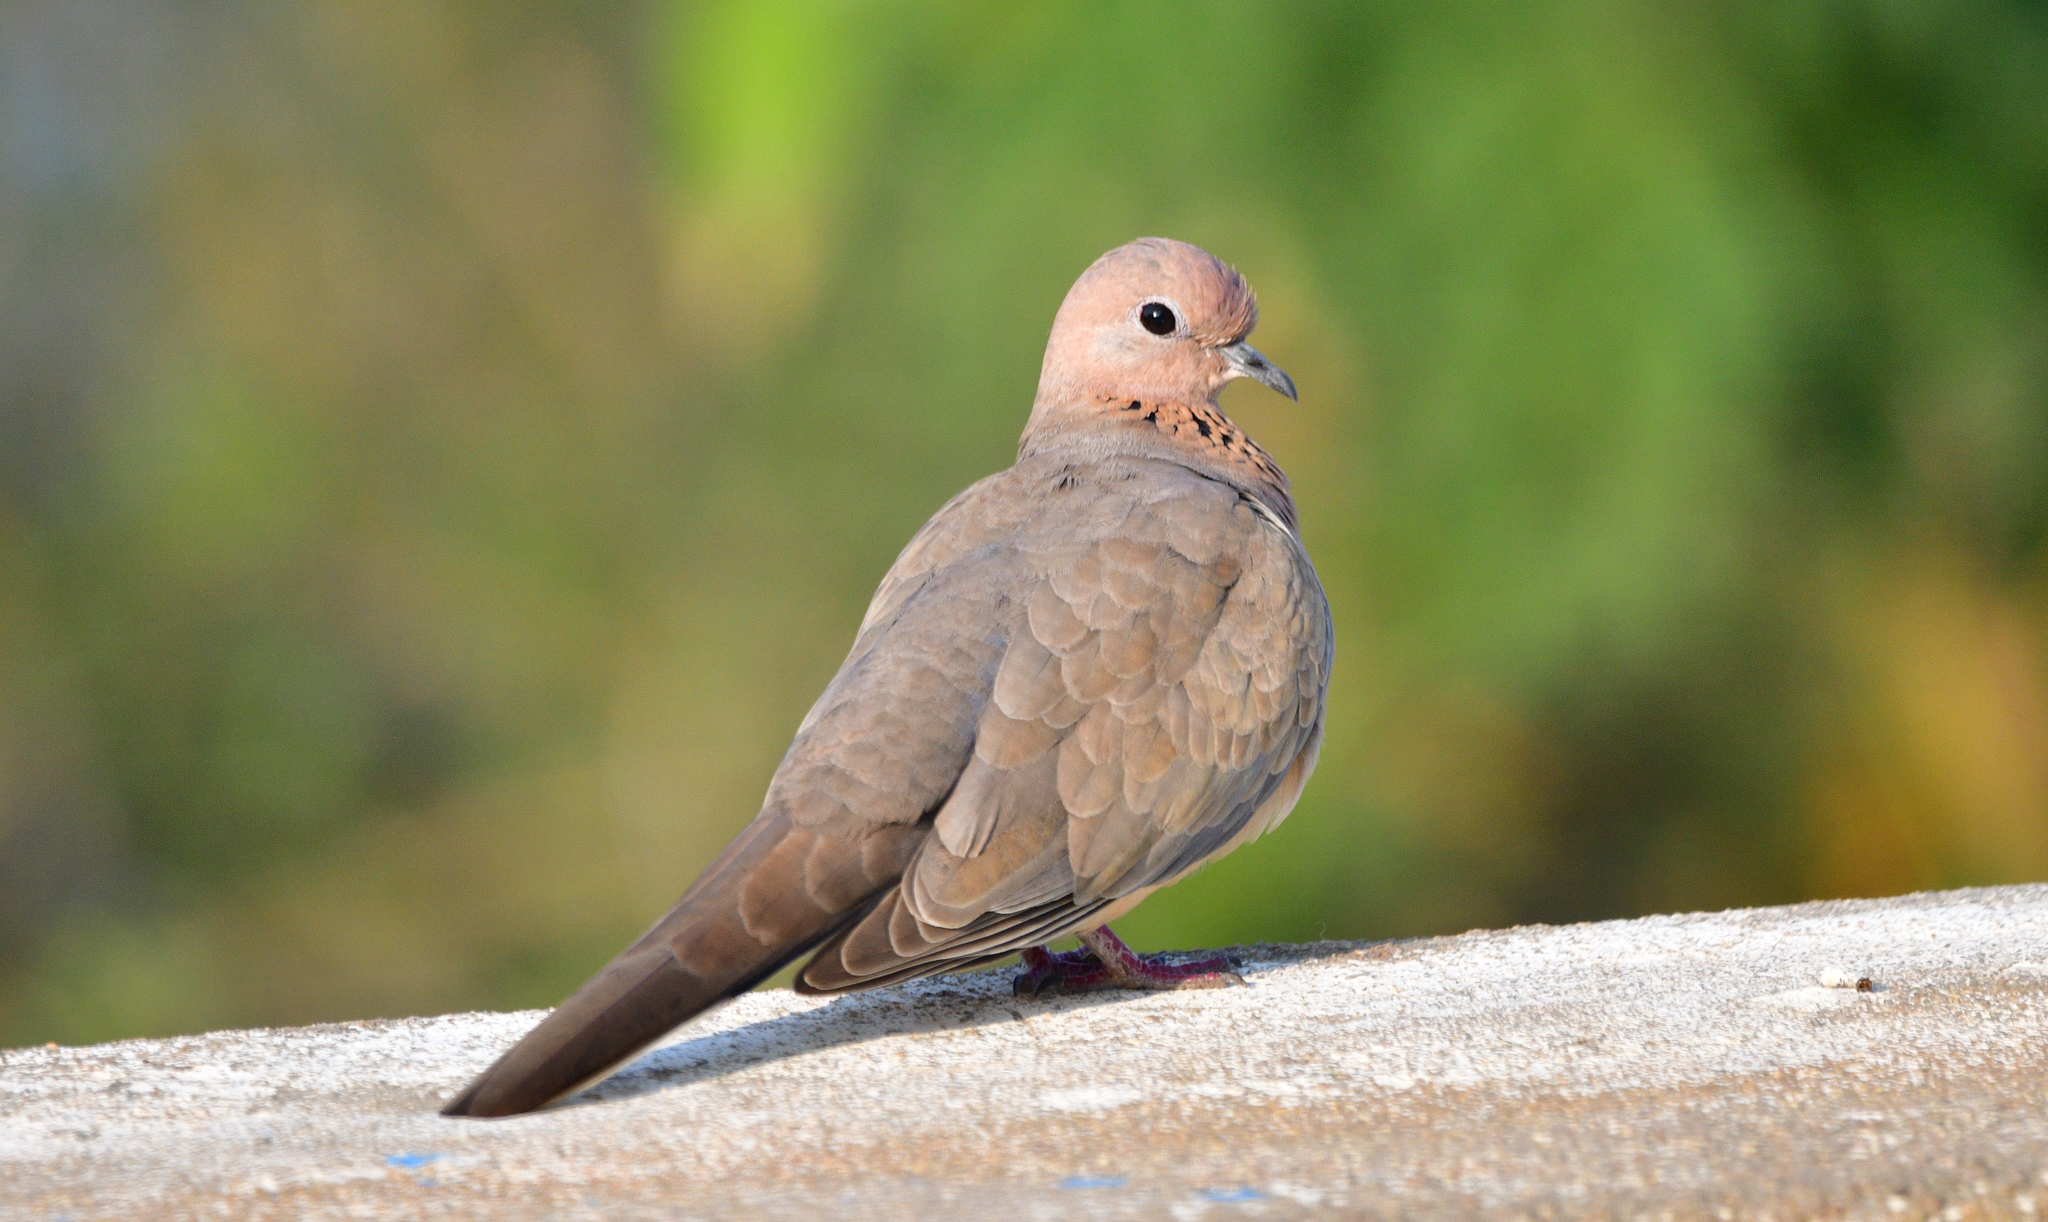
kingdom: Animalia
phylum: Chordata
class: Aves
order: Columbiformes
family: Columbidae
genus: Spilopelia
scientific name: Spilopelia senegalensis
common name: Laughing dove
